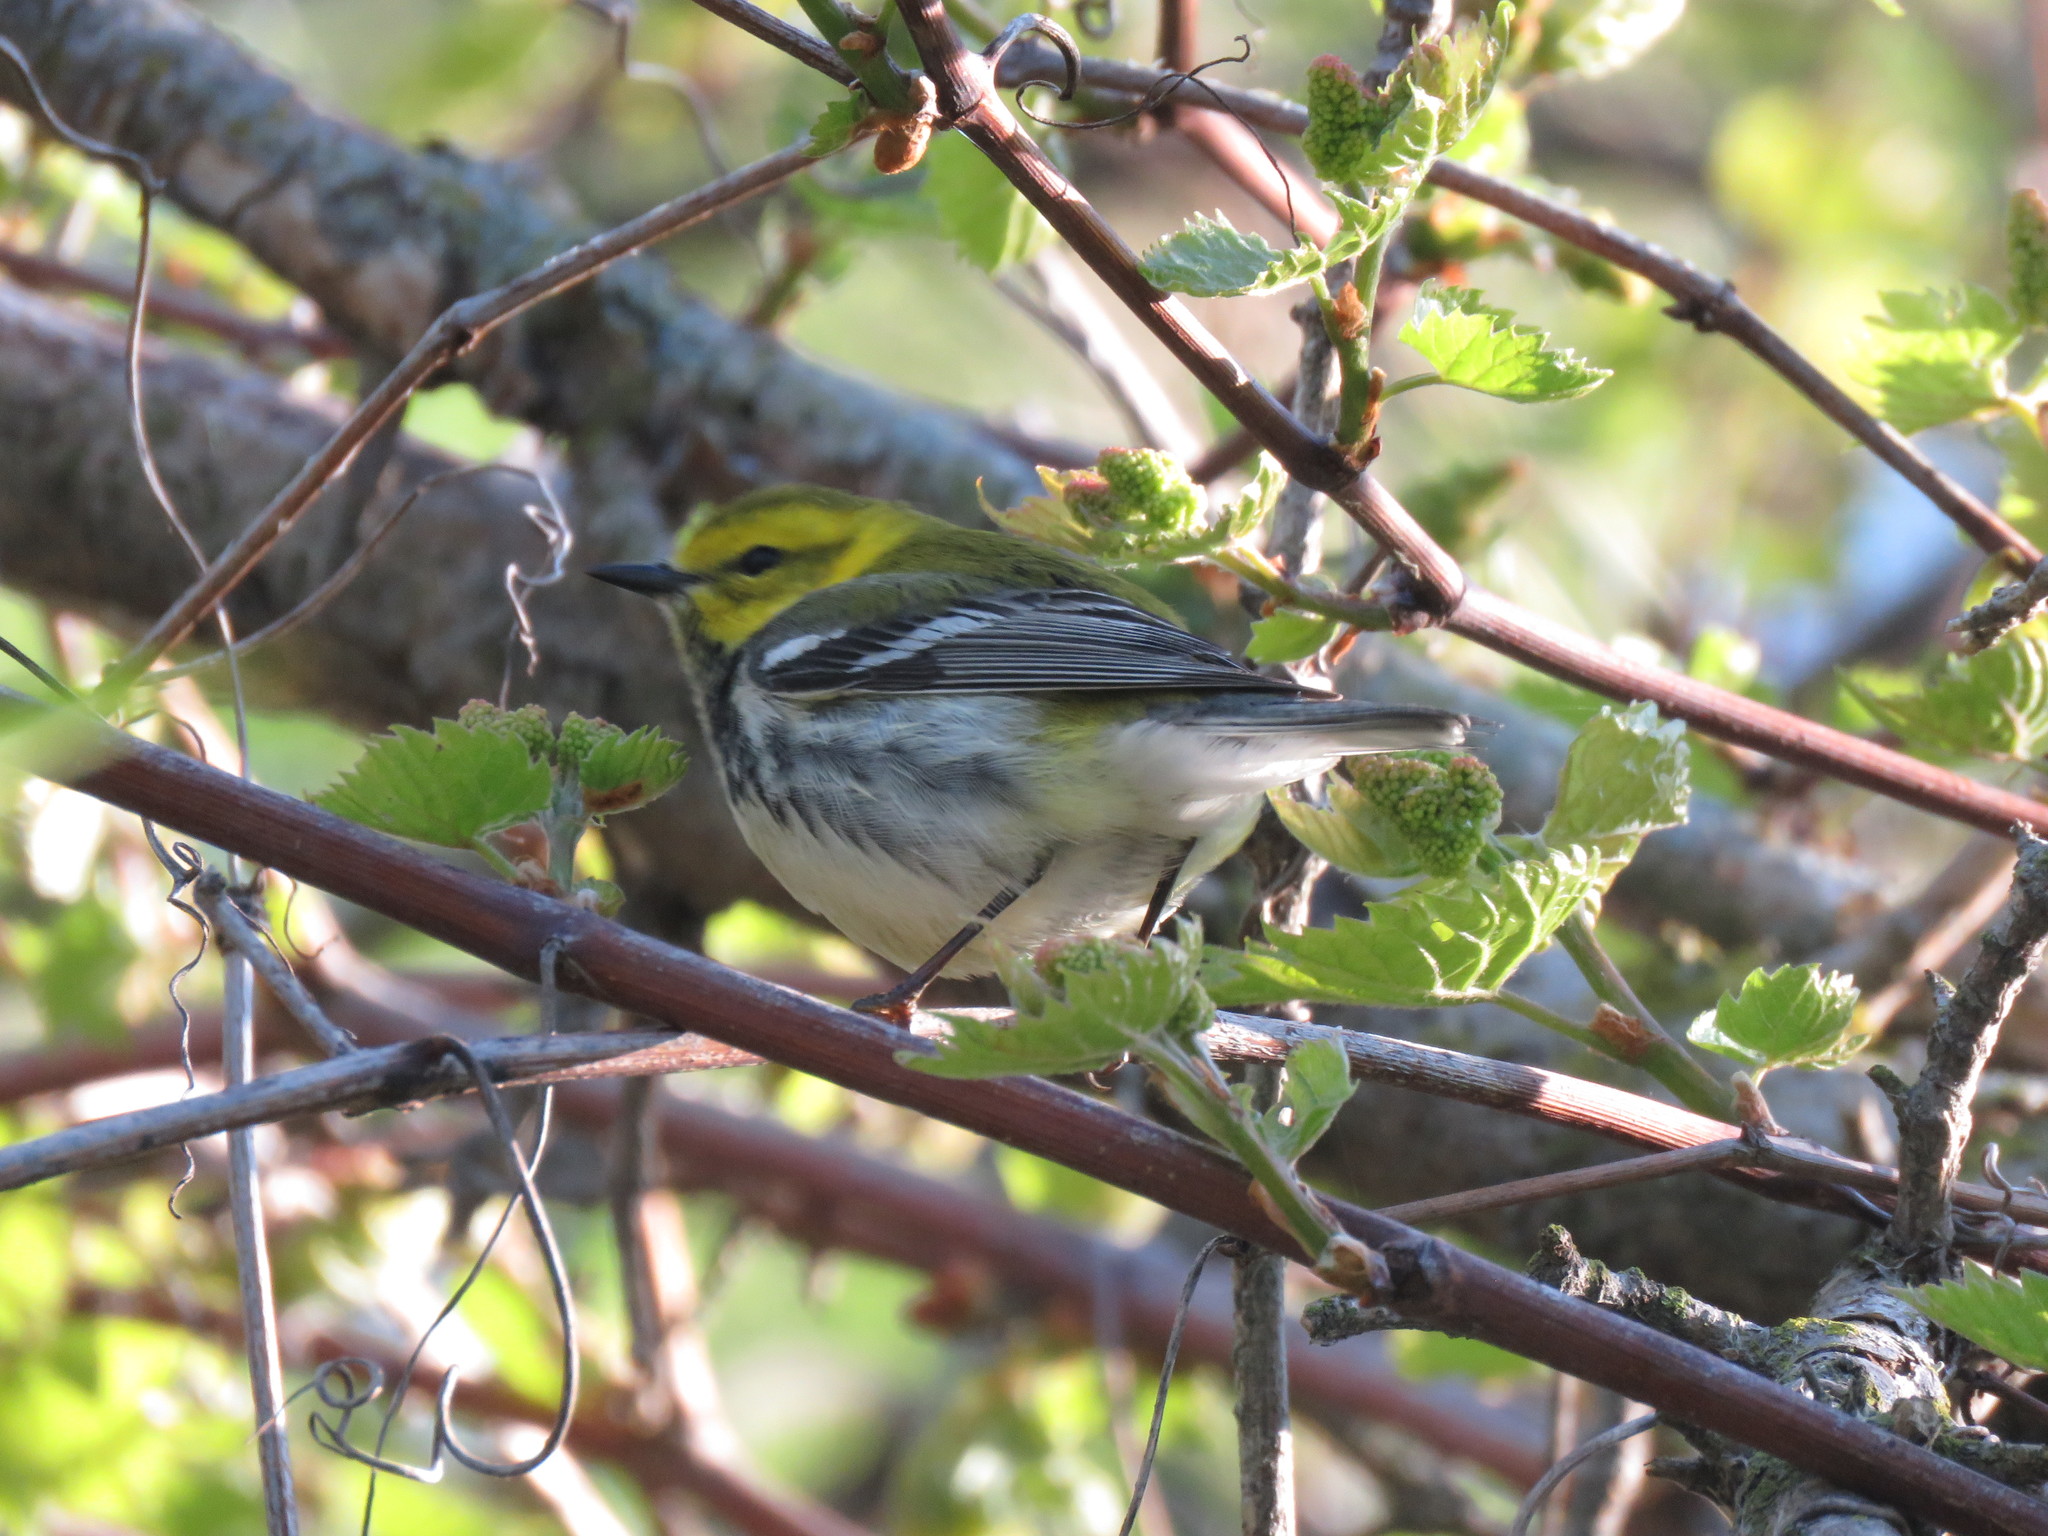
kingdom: Animalia
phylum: Chordata
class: Aves
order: Passeriformes
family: Parulidae
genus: Setophaga
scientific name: Setophaga virens
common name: Black-throated green warbler
